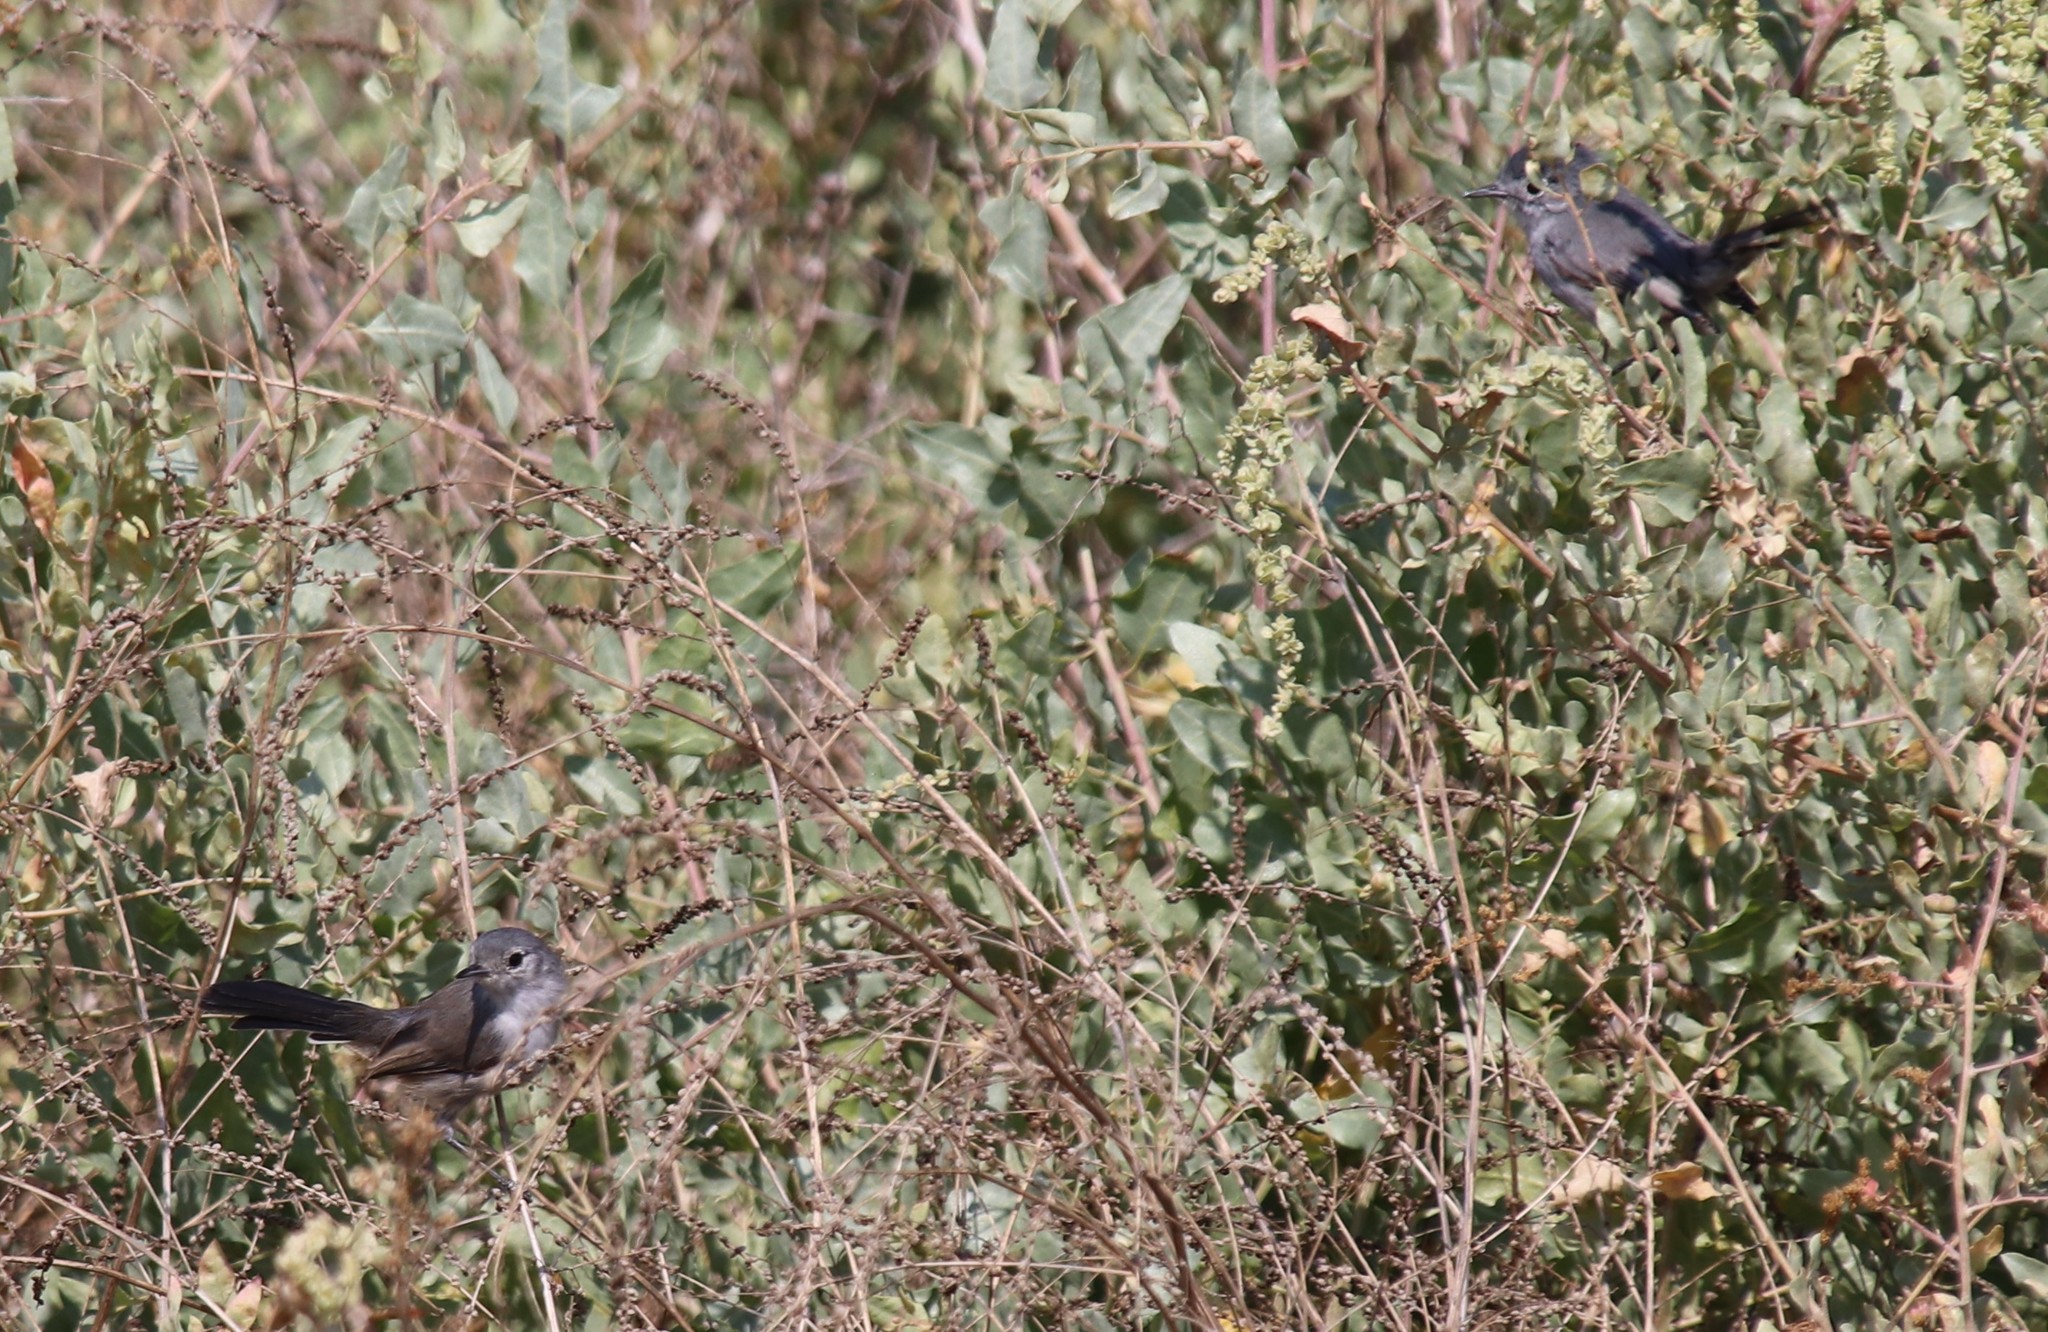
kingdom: Animalia
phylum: Chordata
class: Aves
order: Passeriformes
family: Polioptilidae
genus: Polioptila
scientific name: Polioptila californica
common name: California gnatcatcher
